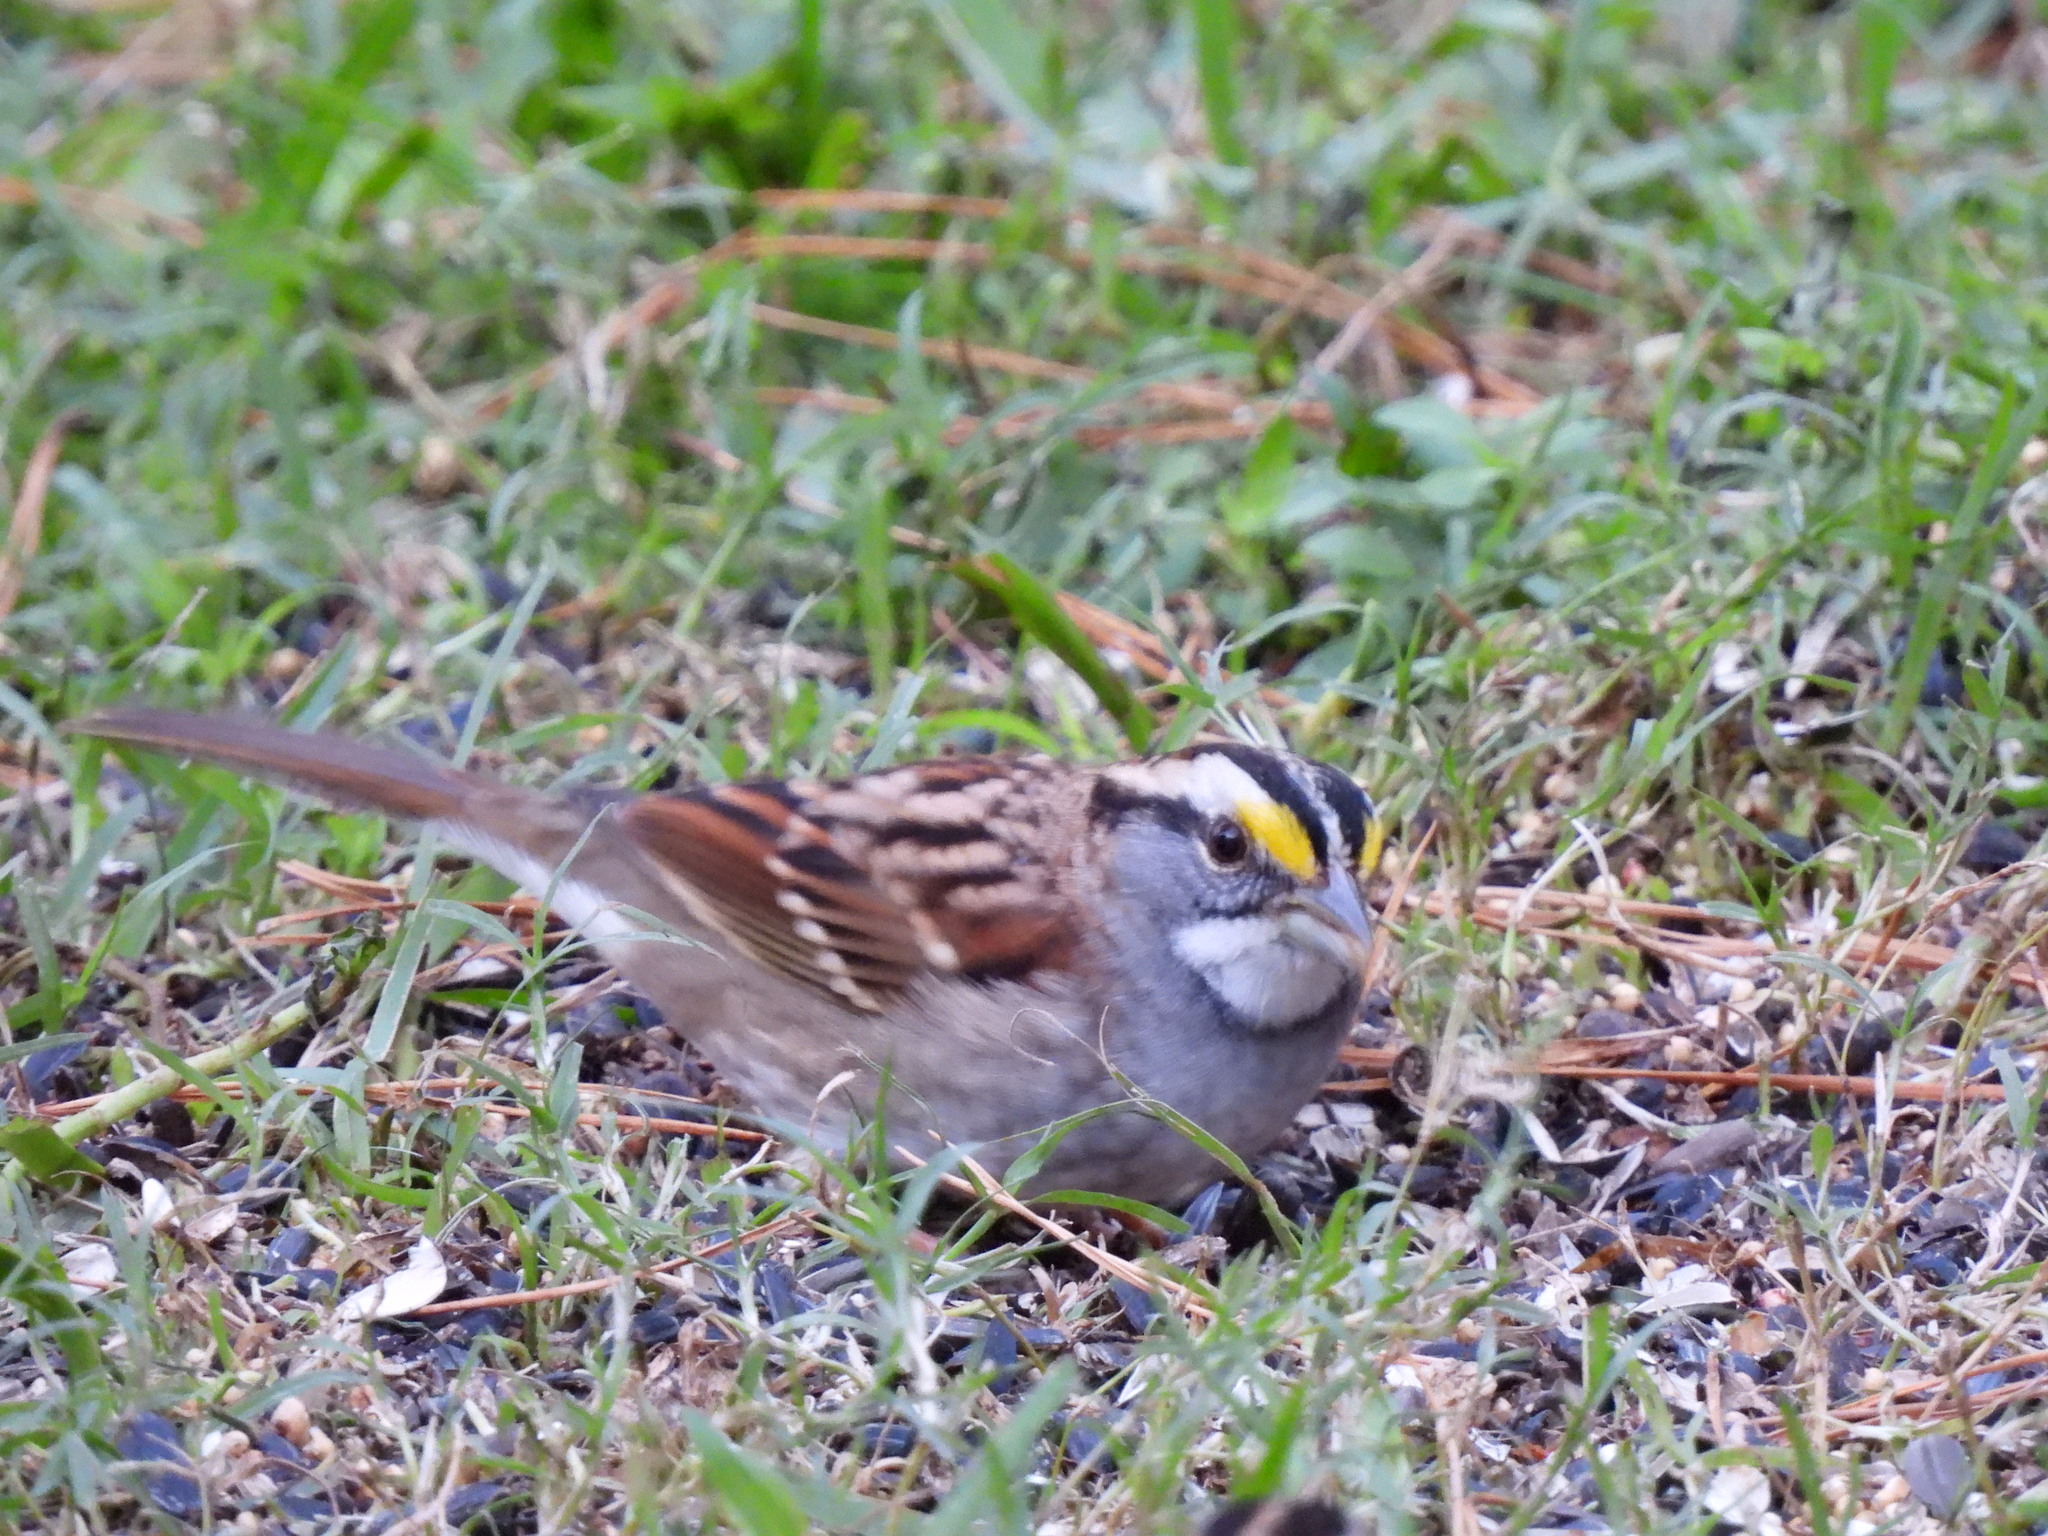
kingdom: Animalia
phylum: Chordata
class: Aves
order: Passeriformes
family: Passerellidae
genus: Zonotrichia
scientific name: Zonotrichia albicollis
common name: White-throated sparrow
